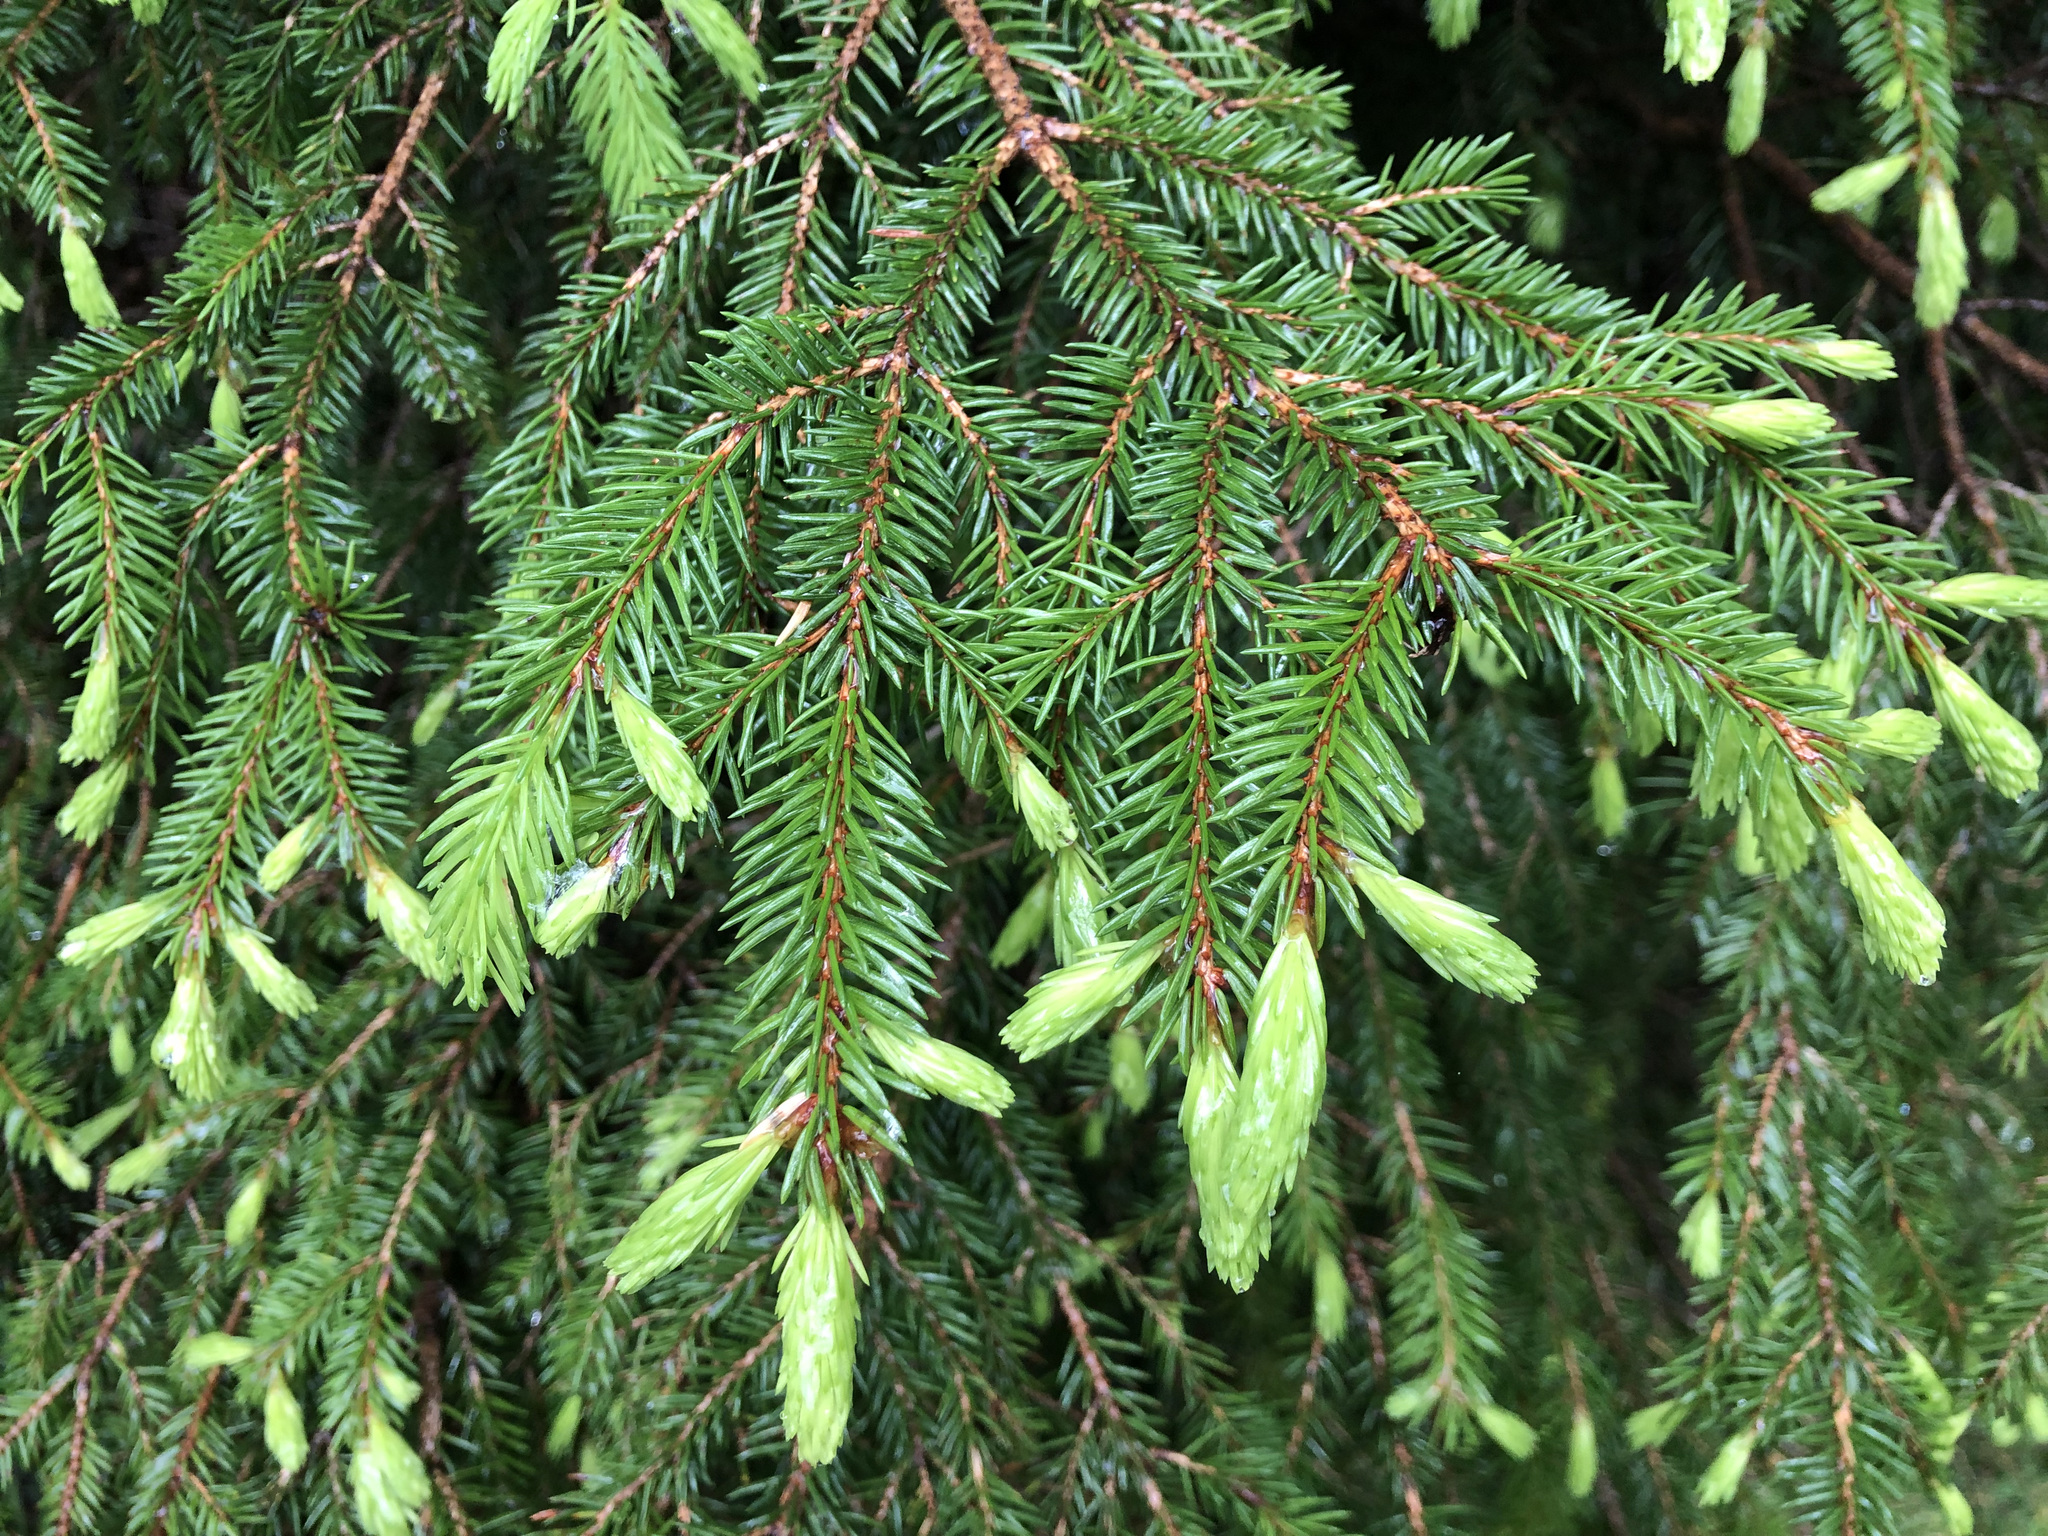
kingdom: Plantae
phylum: Tracheophyta
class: Pinopsida
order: Pinales
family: Pinaceae
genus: Picea
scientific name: Picea abies
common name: Norway spruce
